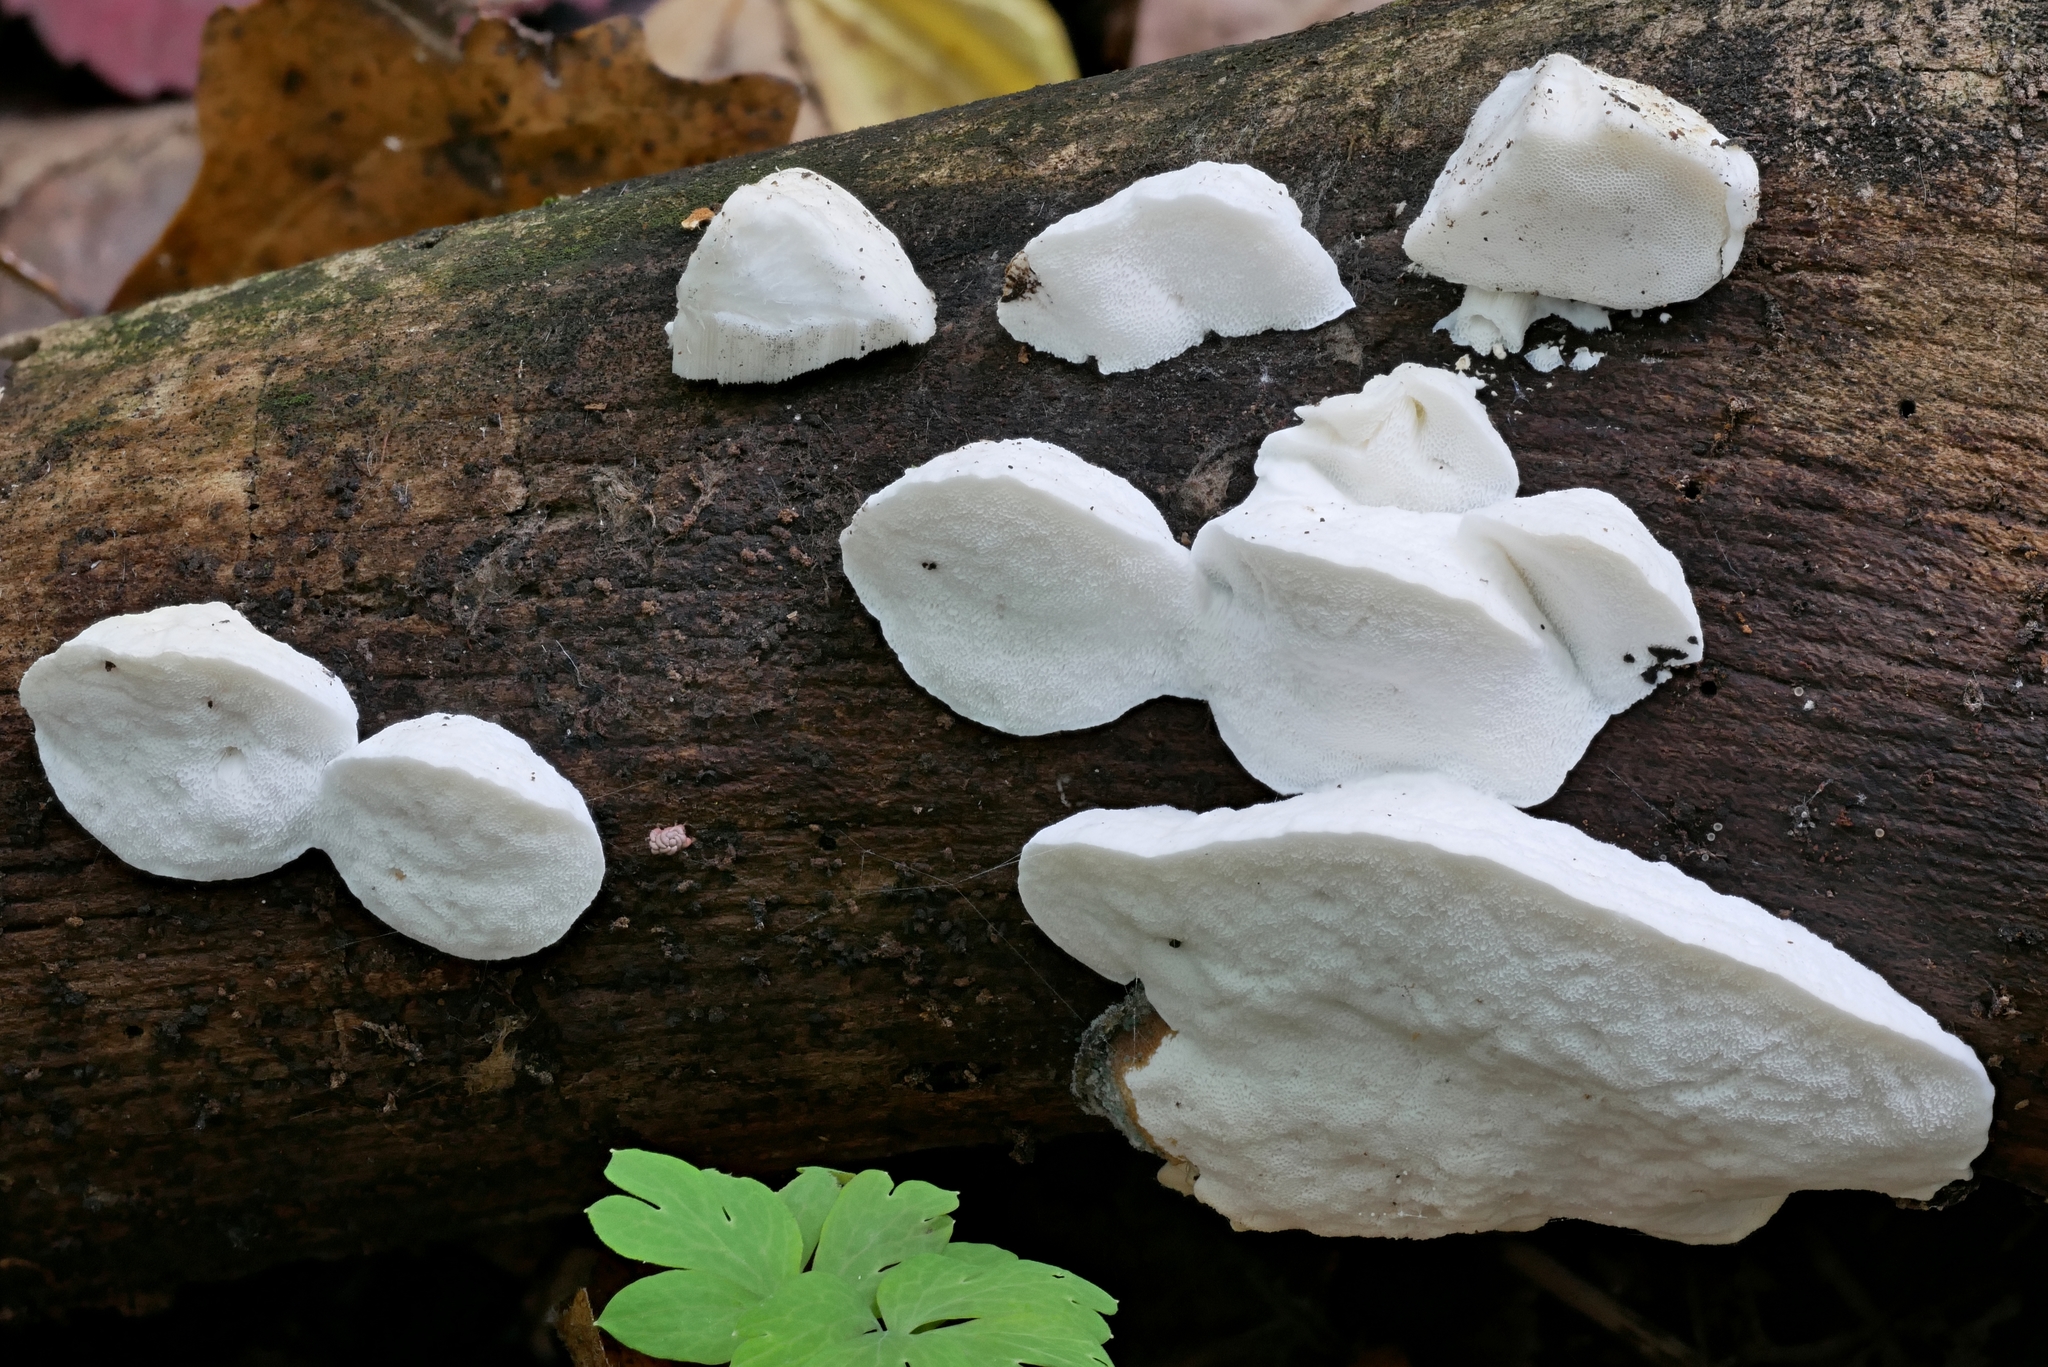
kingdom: Fungi
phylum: Basidiomycota
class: Agaricomycetes
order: Polyporales
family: Incrustoporiaceae
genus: Tyromyces
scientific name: Tyromyces chioneus
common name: White cheese polypore
